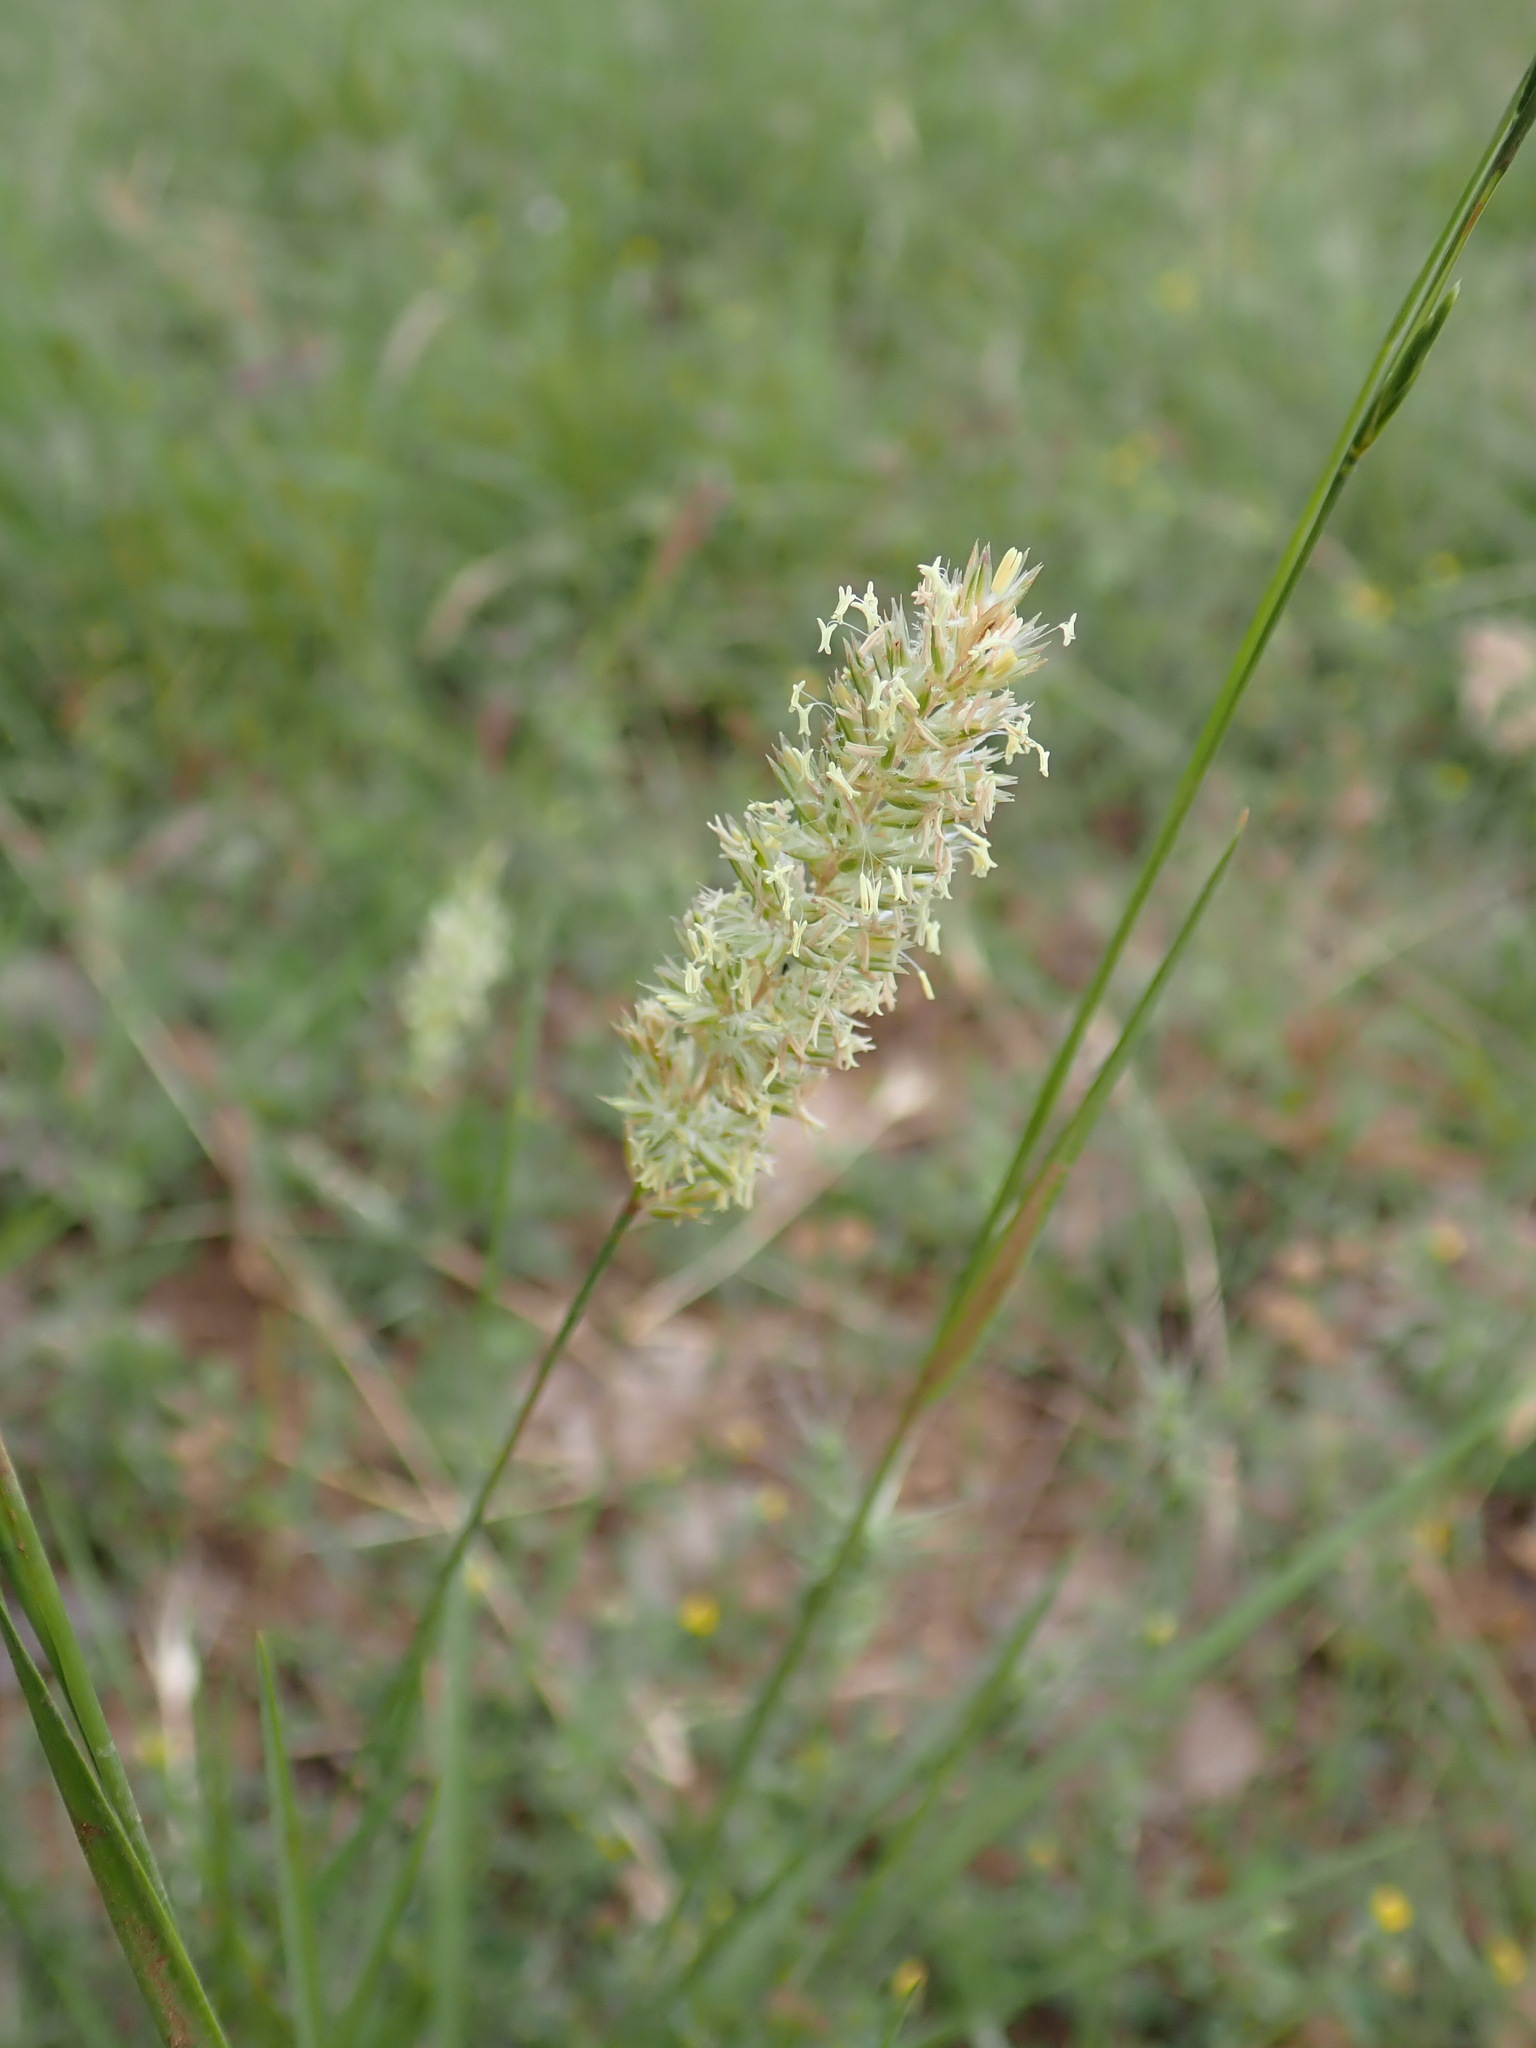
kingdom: Plantae
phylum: Tracheophyta
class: Liliopsida
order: Poales
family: Poaceae
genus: Koeleria
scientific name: Koeleria vallesiana
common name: Somerset hair-grass
